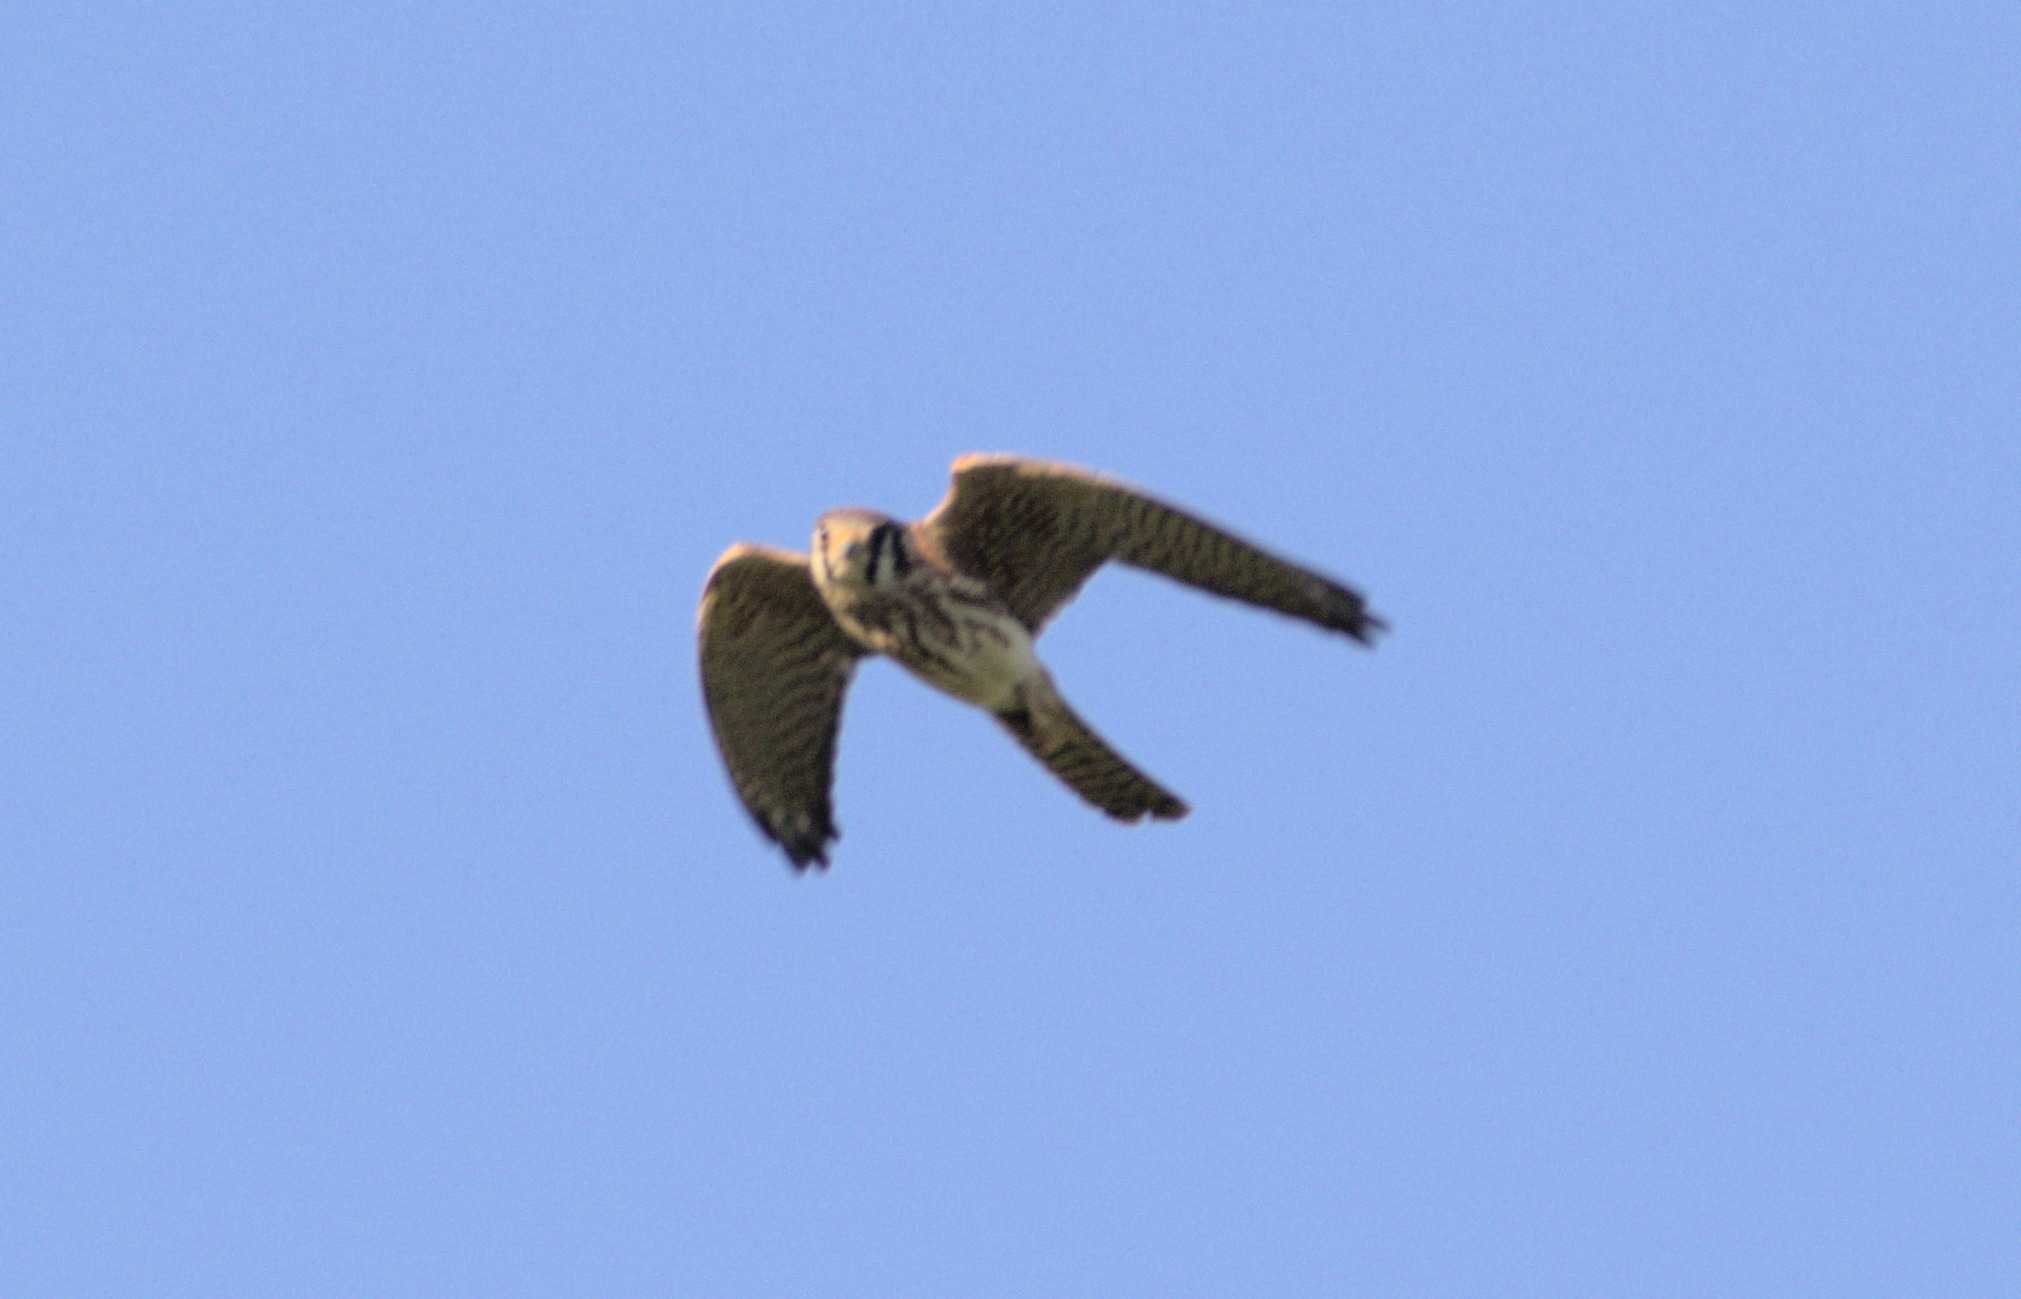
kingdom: Animalia
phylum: Chordata
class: Aves
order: Falconiformes
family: Falconidae
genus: Falco
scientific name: Falco sparverius
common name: American kestrel
